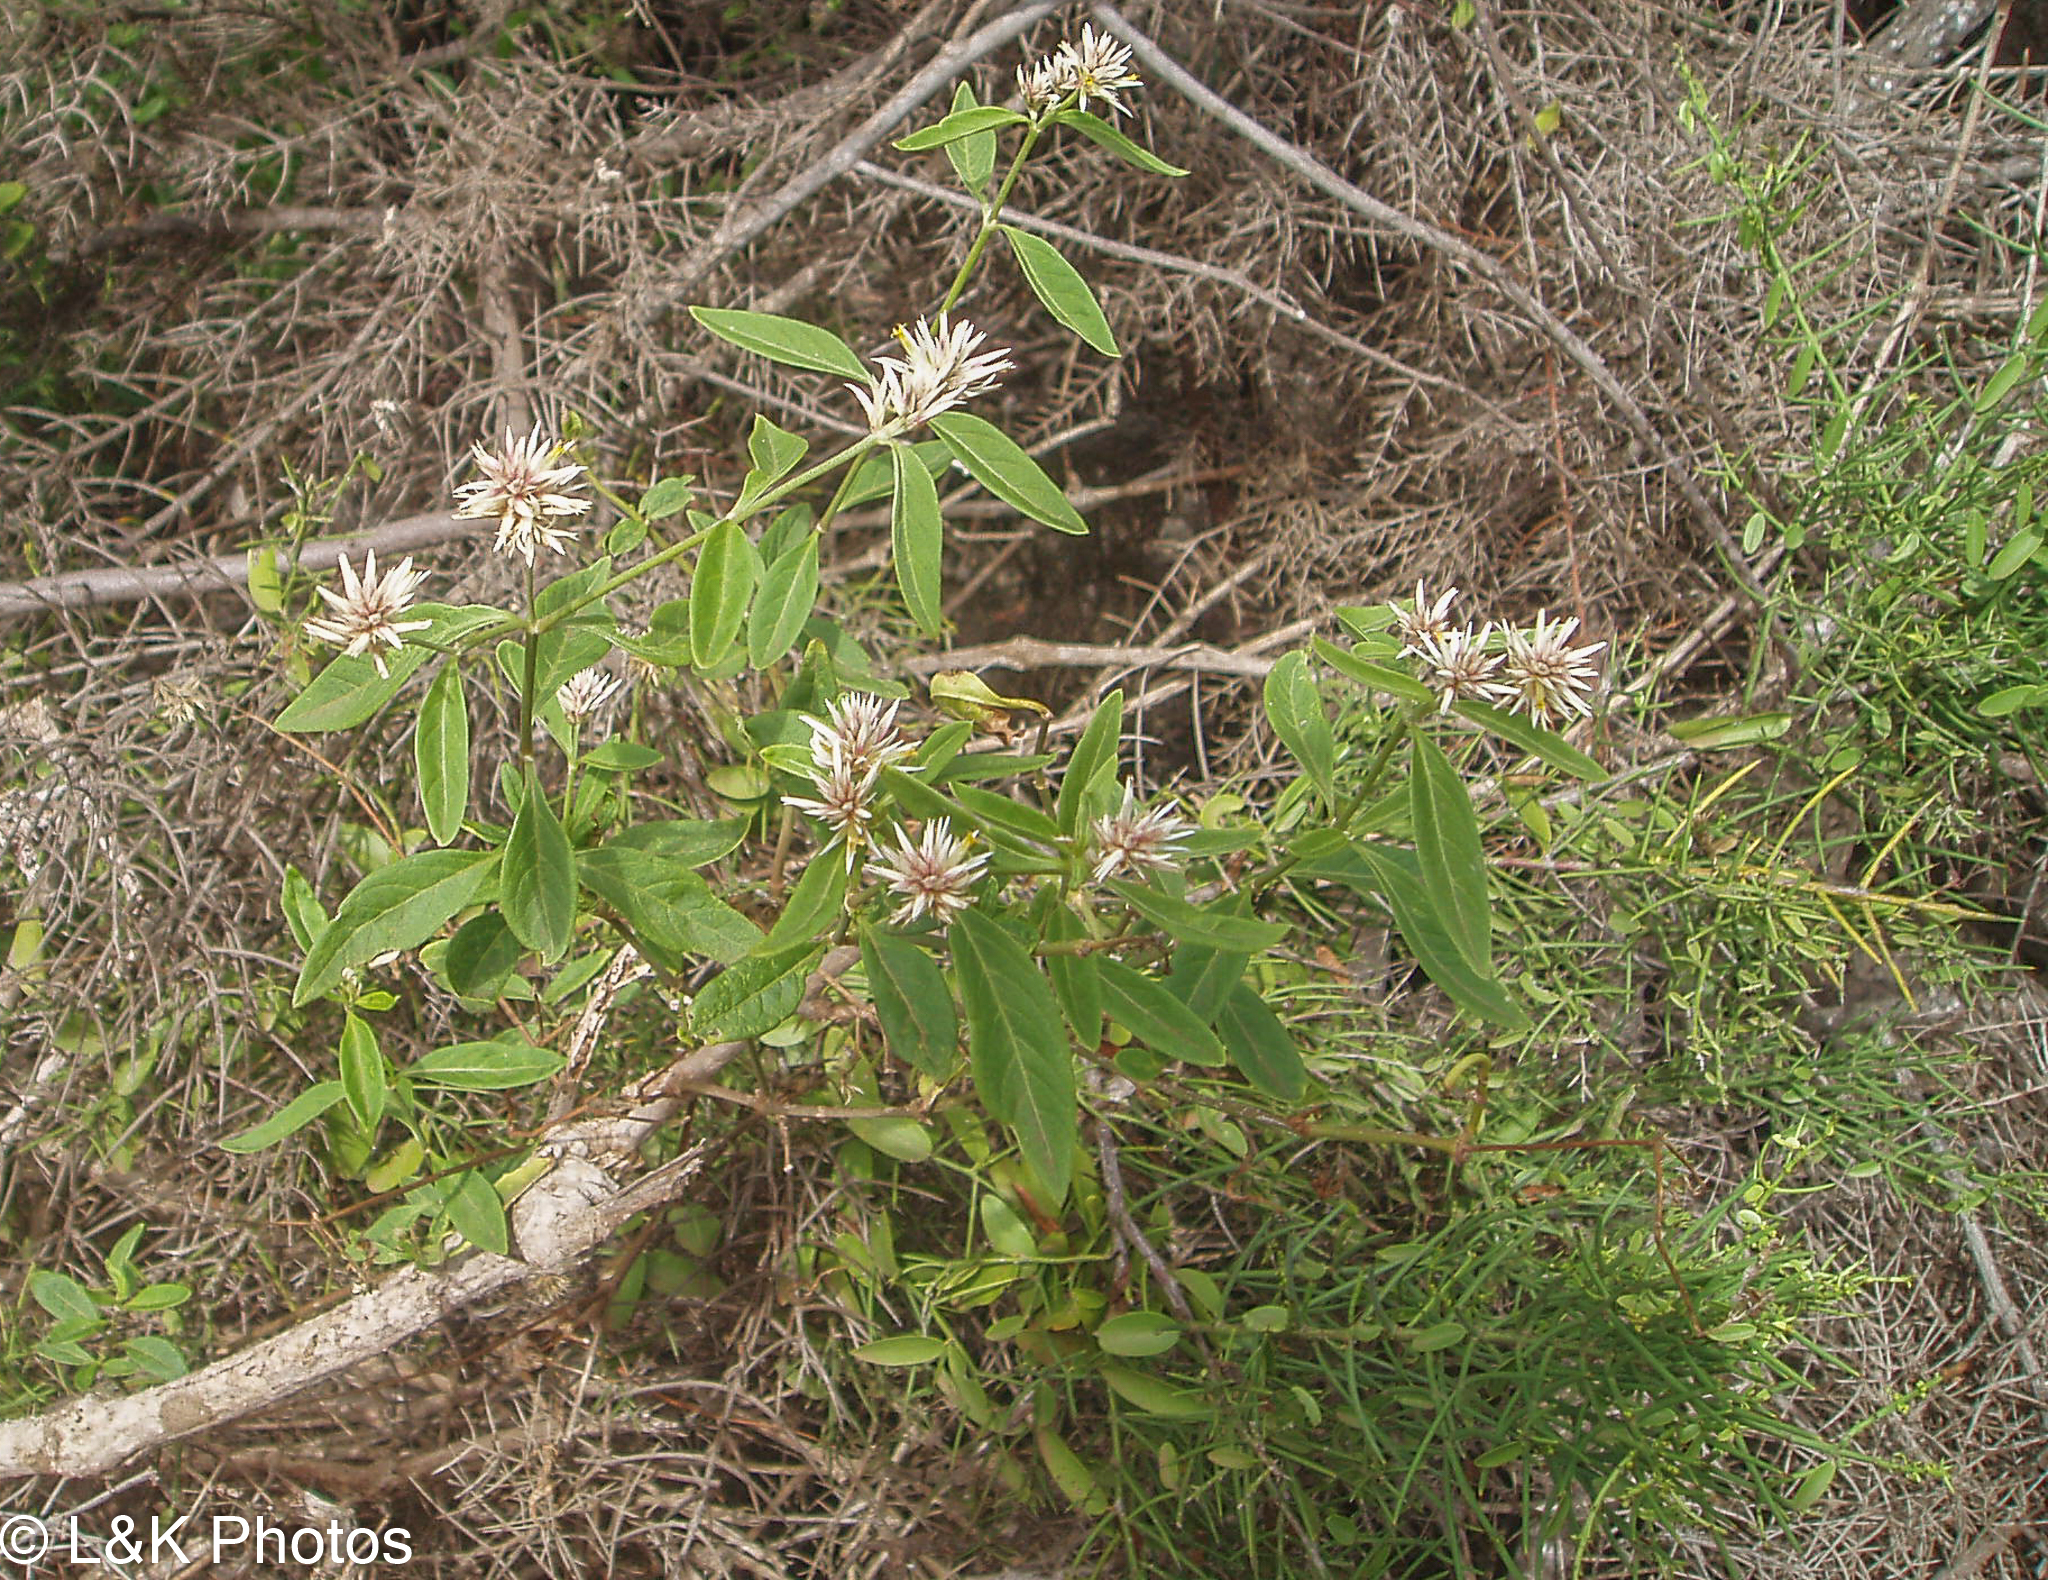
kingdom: Plantae
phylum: Tracheophyta
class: Magnoliopsida
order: Caryophyllales
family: Amaranthaceae
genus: Alternanthera
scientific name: Alternanthera echinocephala
